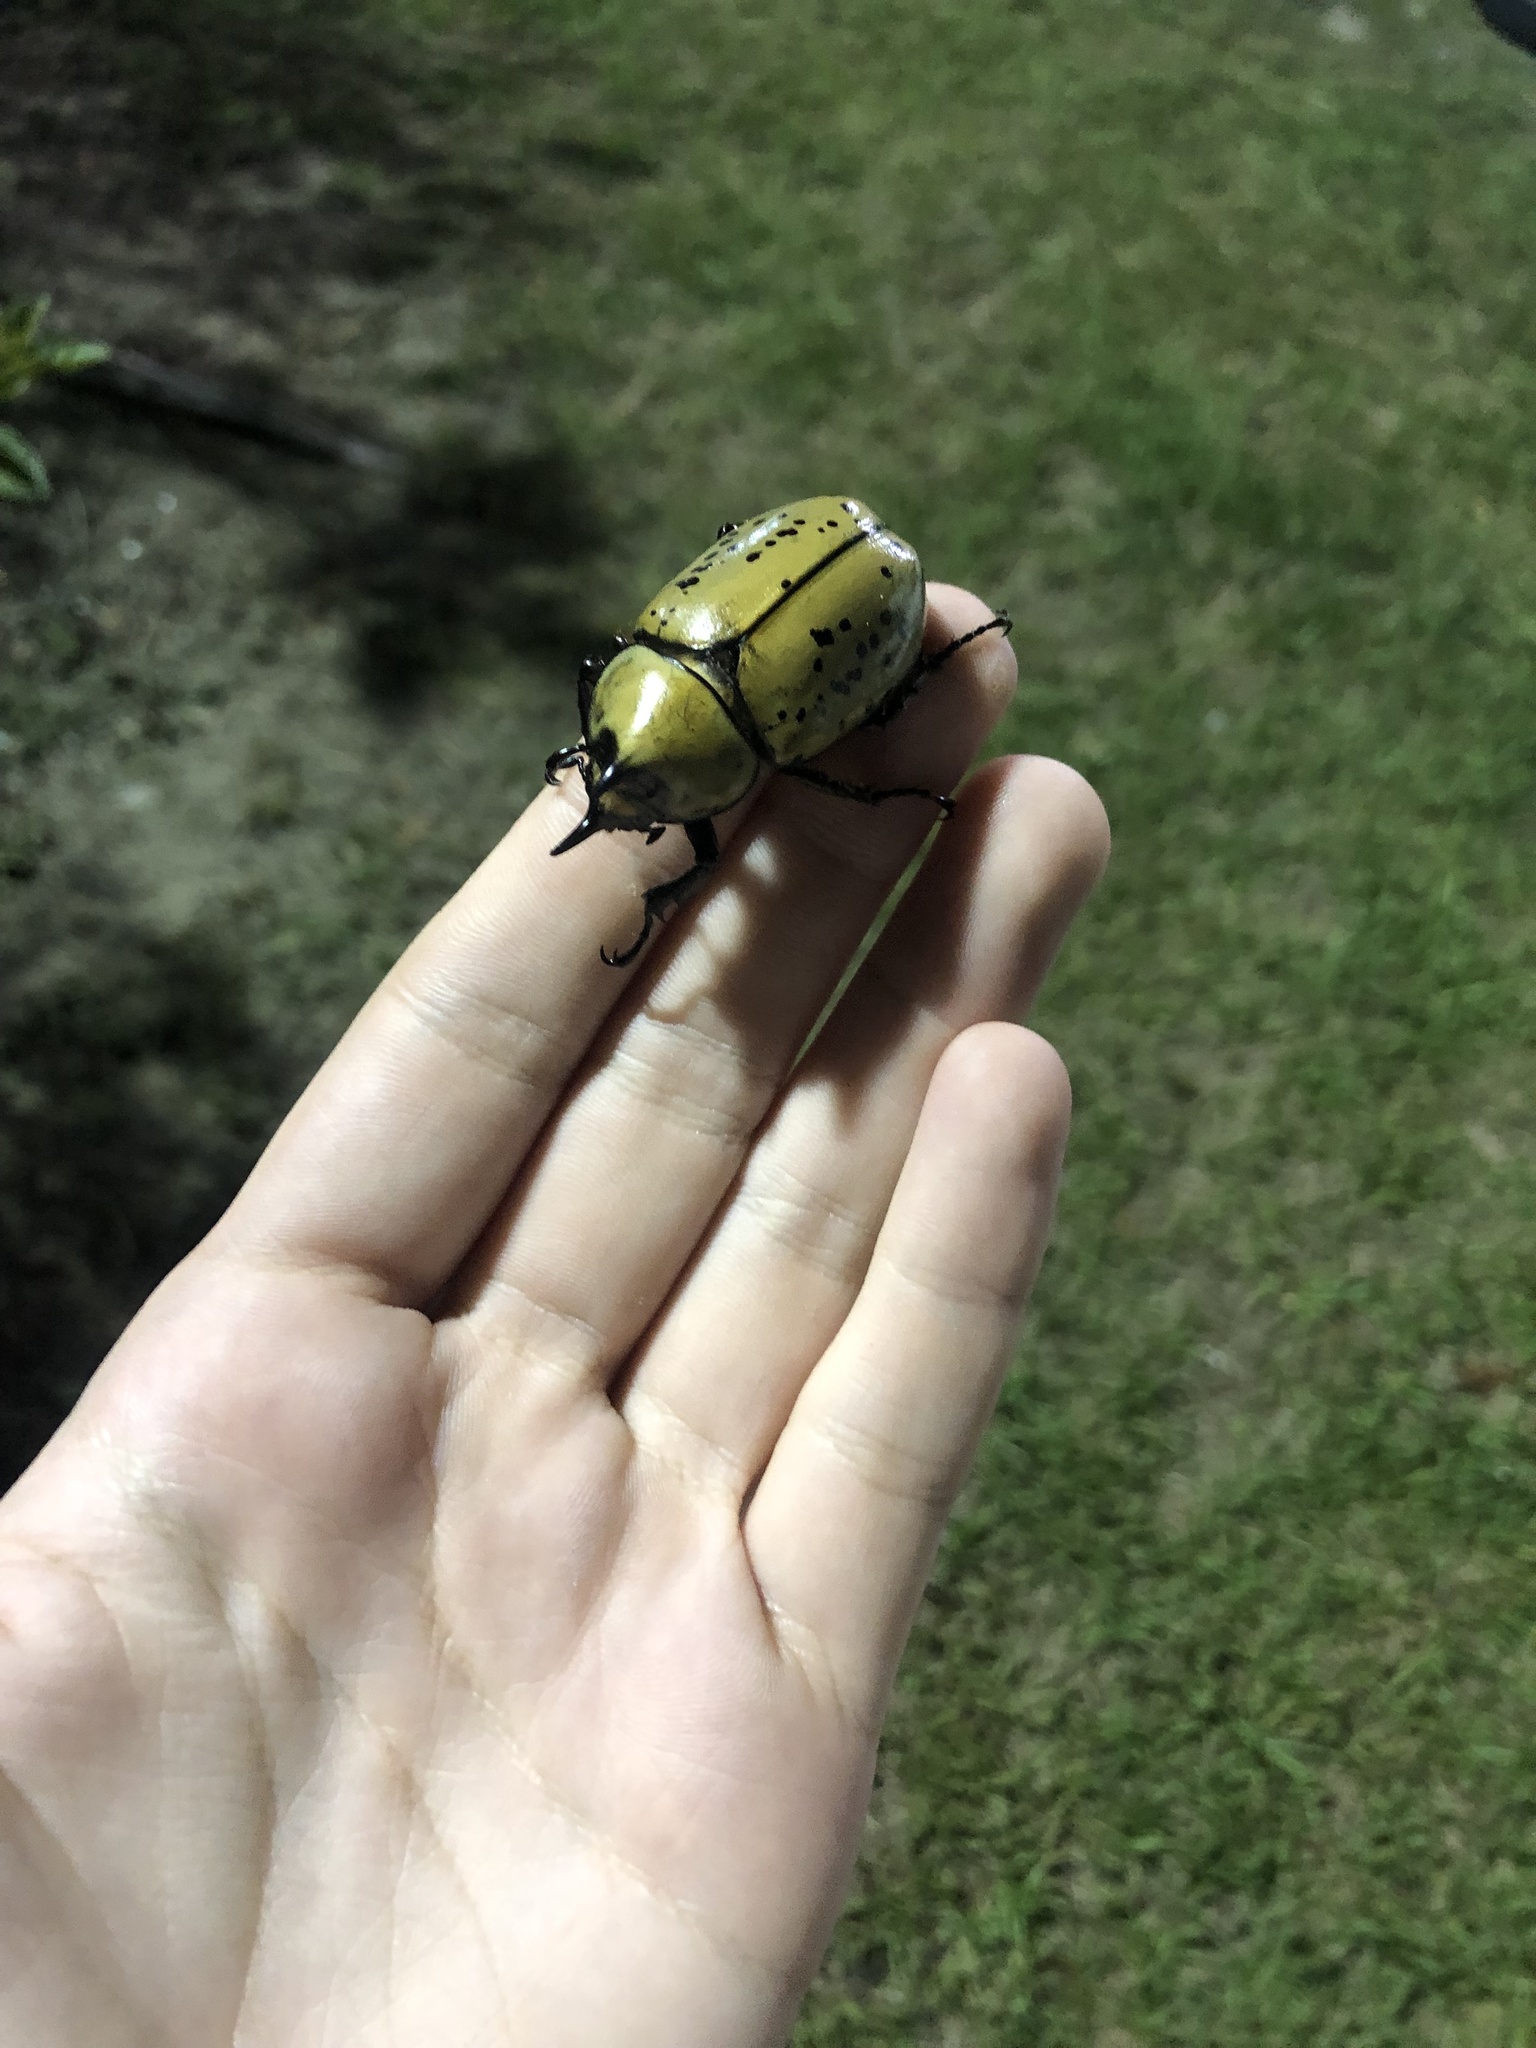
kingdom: Animalia
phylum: Arthropoda
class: Insecta
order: Coleoptera
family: Scarabaeidae
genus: Dynastes
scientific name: Dynastes tityus
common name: Eastern hercules beetle
